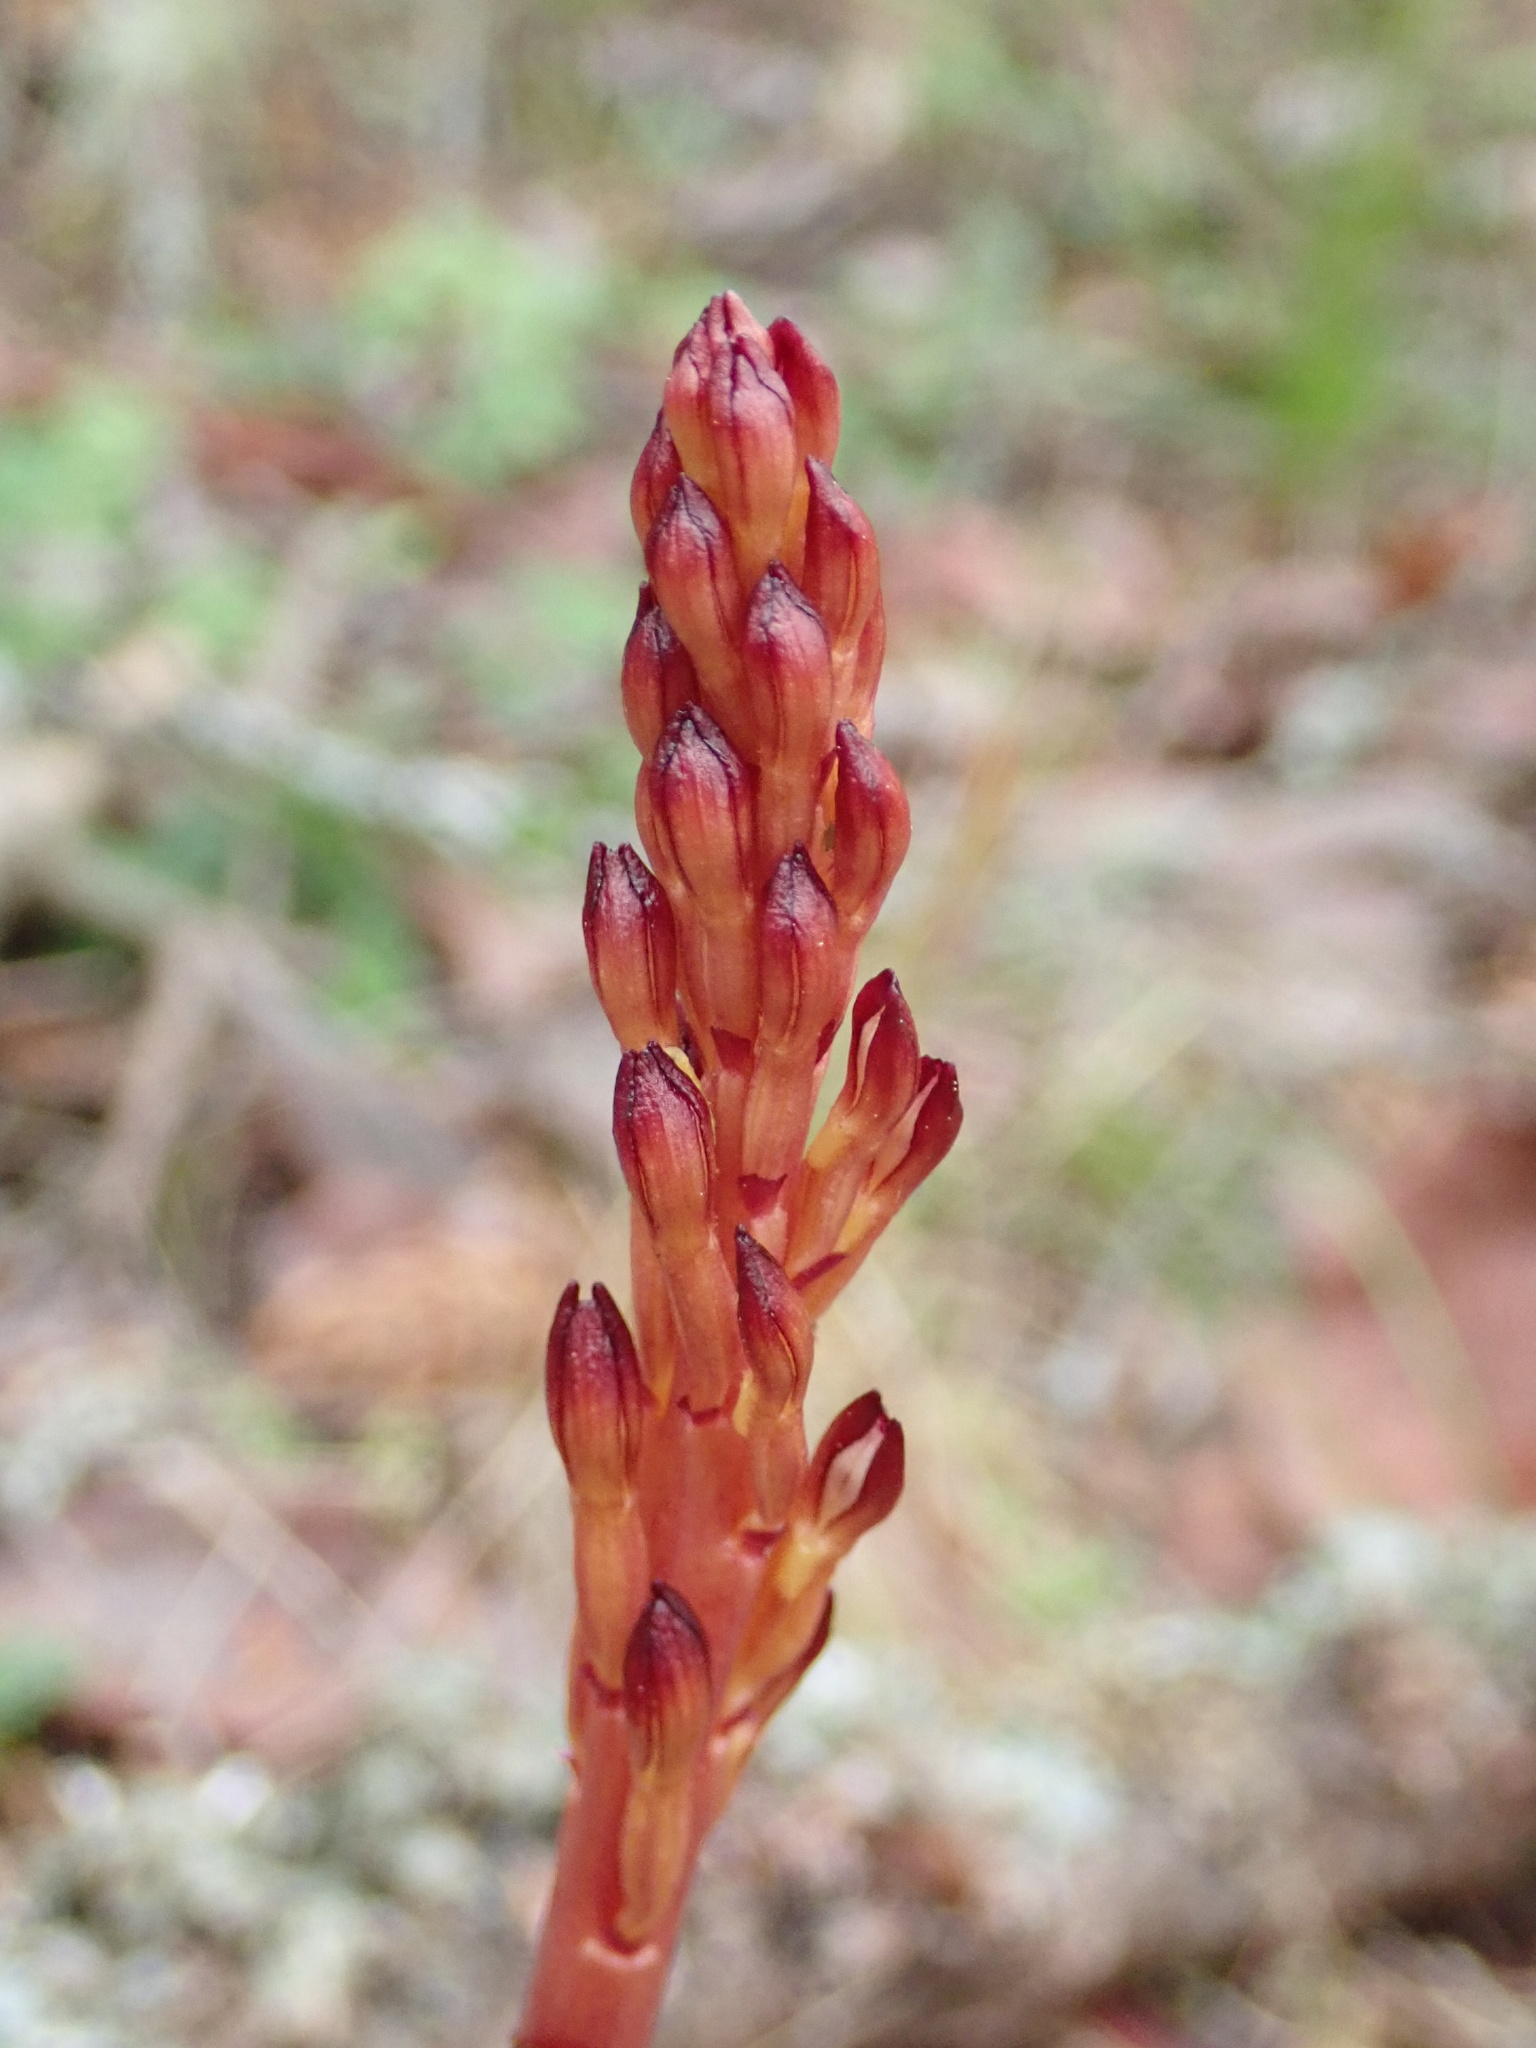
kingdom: Plantae
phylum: Tracheophyta
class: Liliopsida
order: Asparagales
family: Orchidaceae
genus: Corallorhiza
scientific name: Corallorhiza maculata
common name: Spotted coralroot
